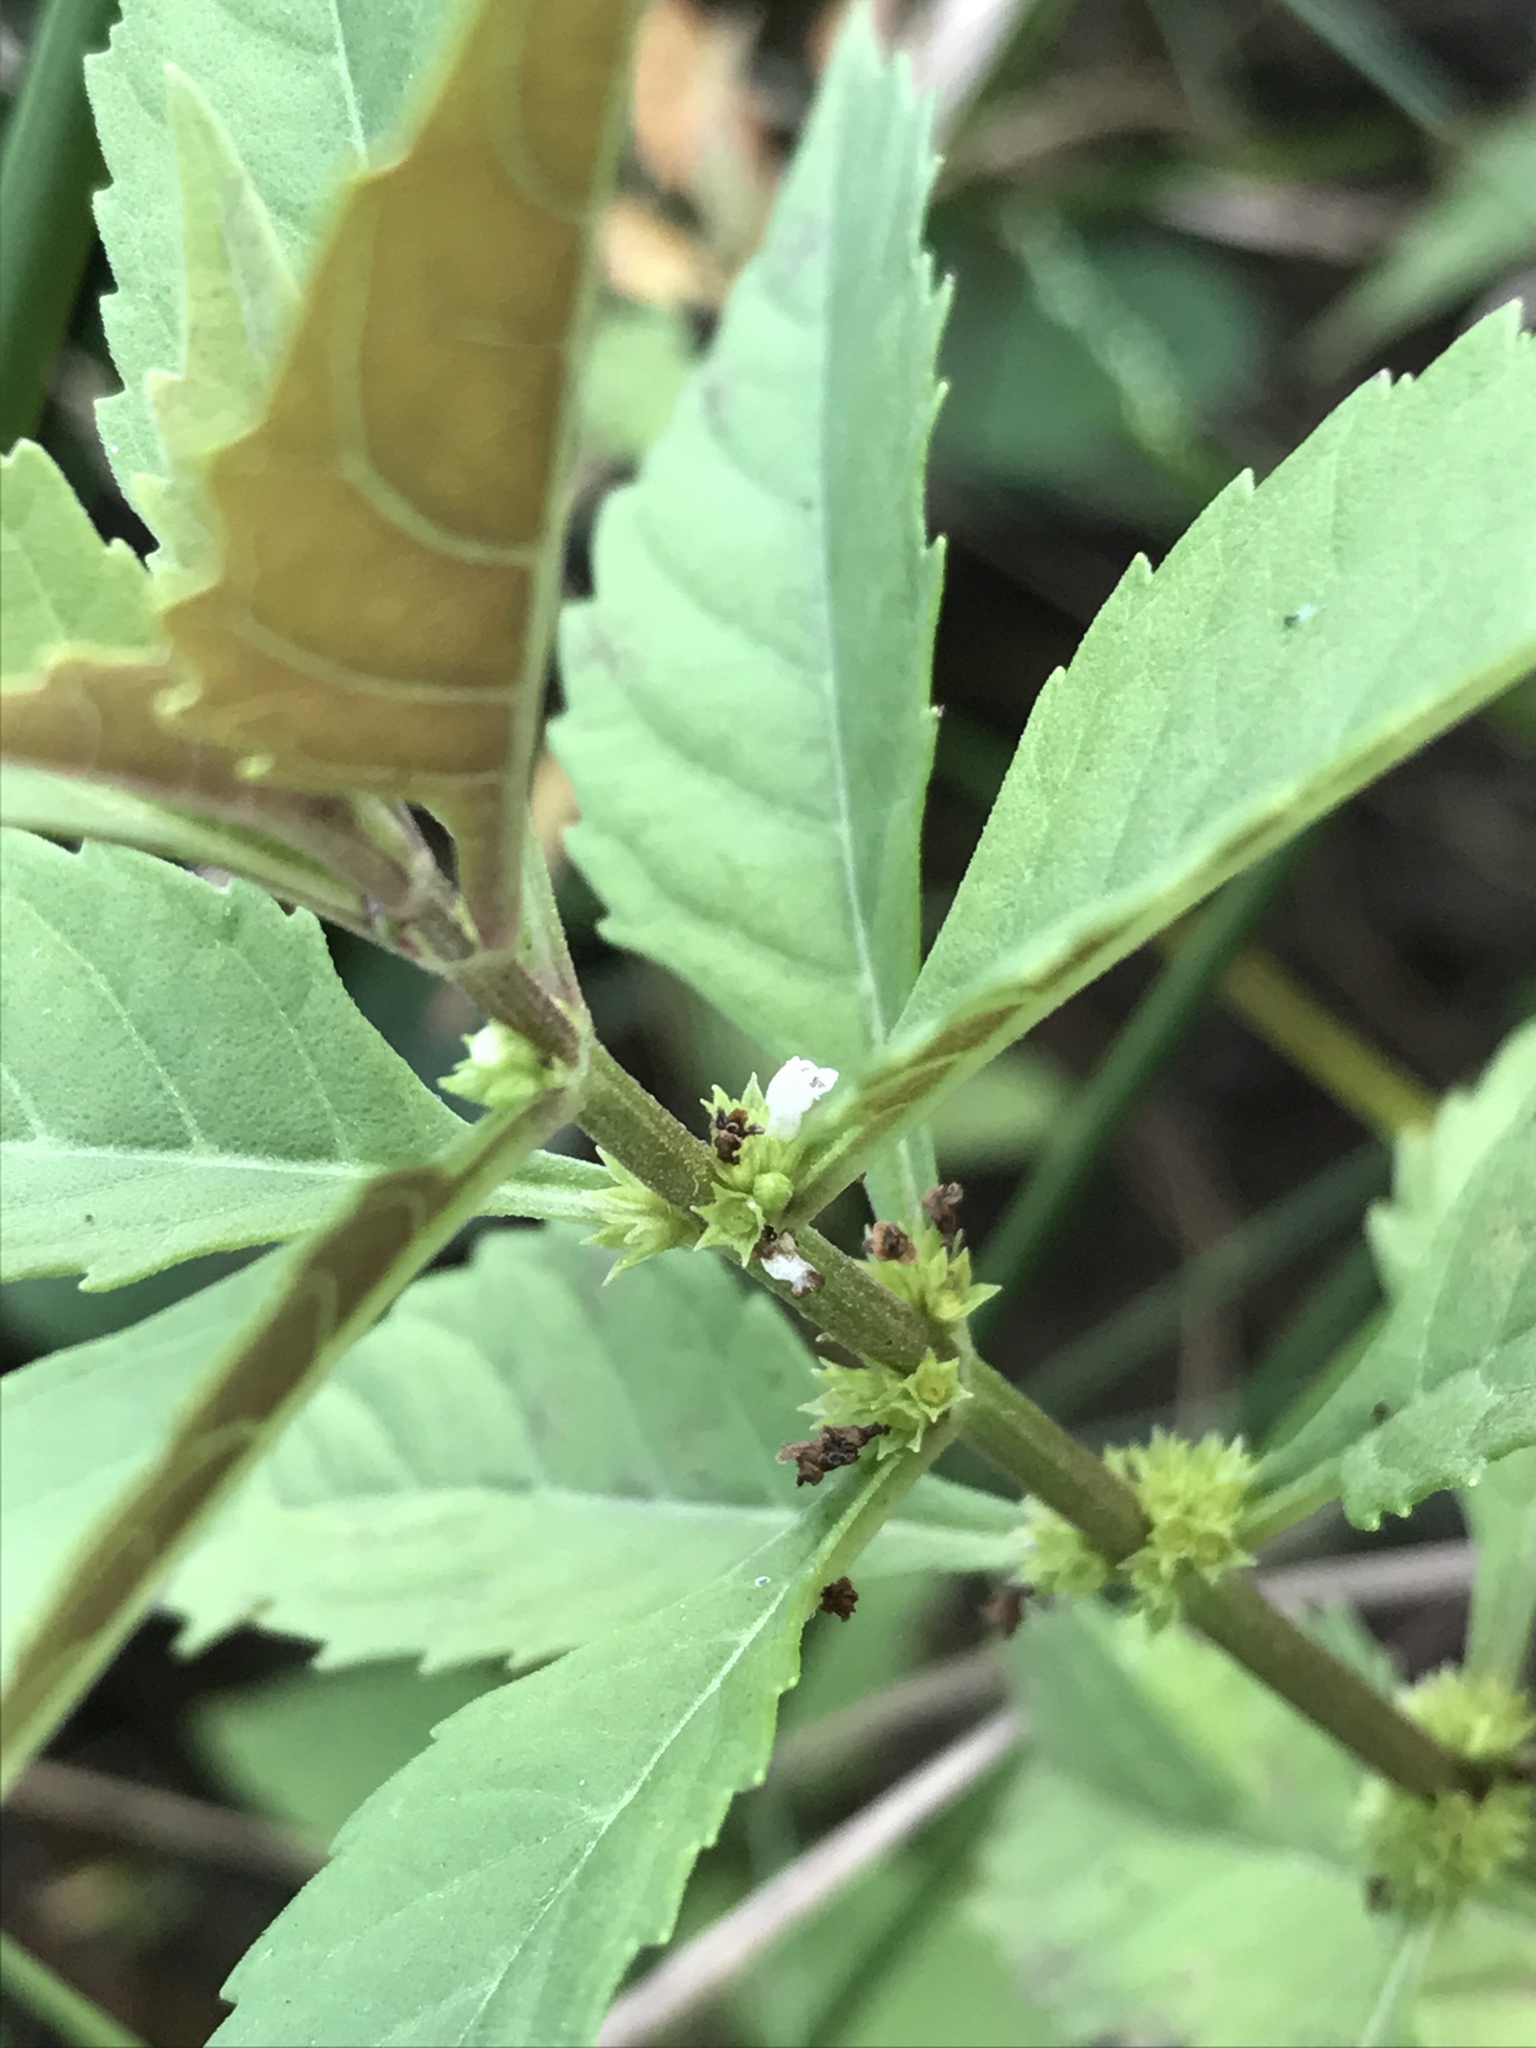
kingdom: Plantae
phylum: Tracheophyta
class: Magnoliopsida
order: Lamiales
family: Lamiaceae
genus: Lycopus
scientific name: Lycopus rubellus
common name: Stalked bugleweed
